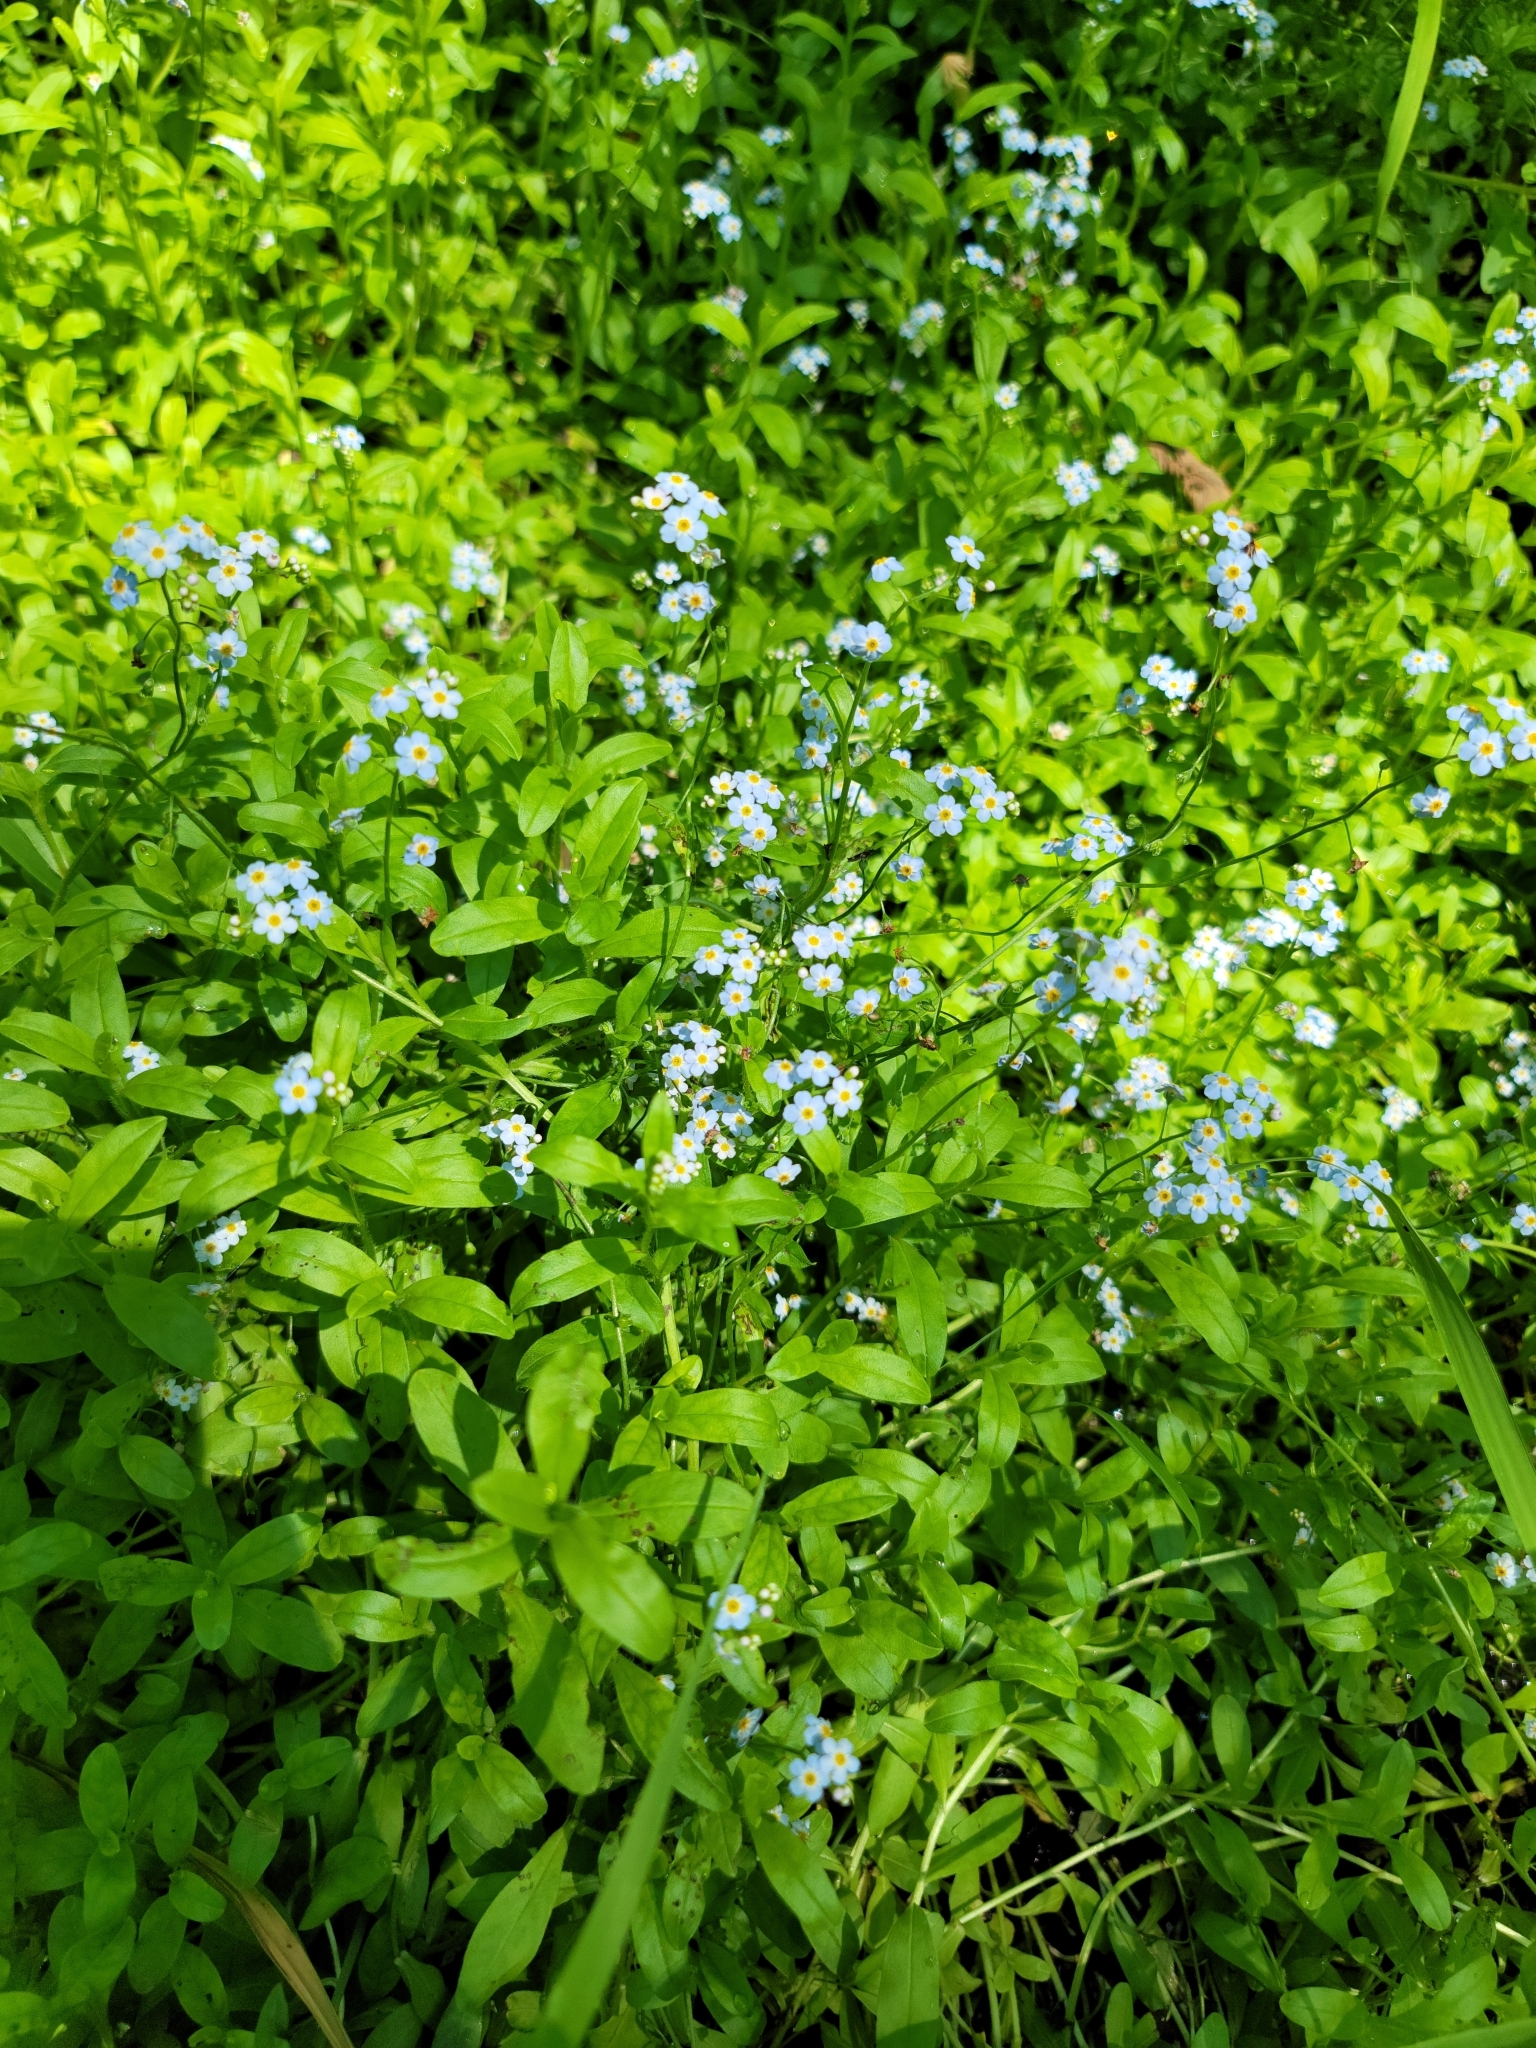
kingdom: Plantae
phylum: Tracheophyta
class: Magnoliopsida
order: Boraginales
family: Boraginaceae
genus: Myosotis
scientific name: Myosotis scorpioides
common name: Water forget-me-not
